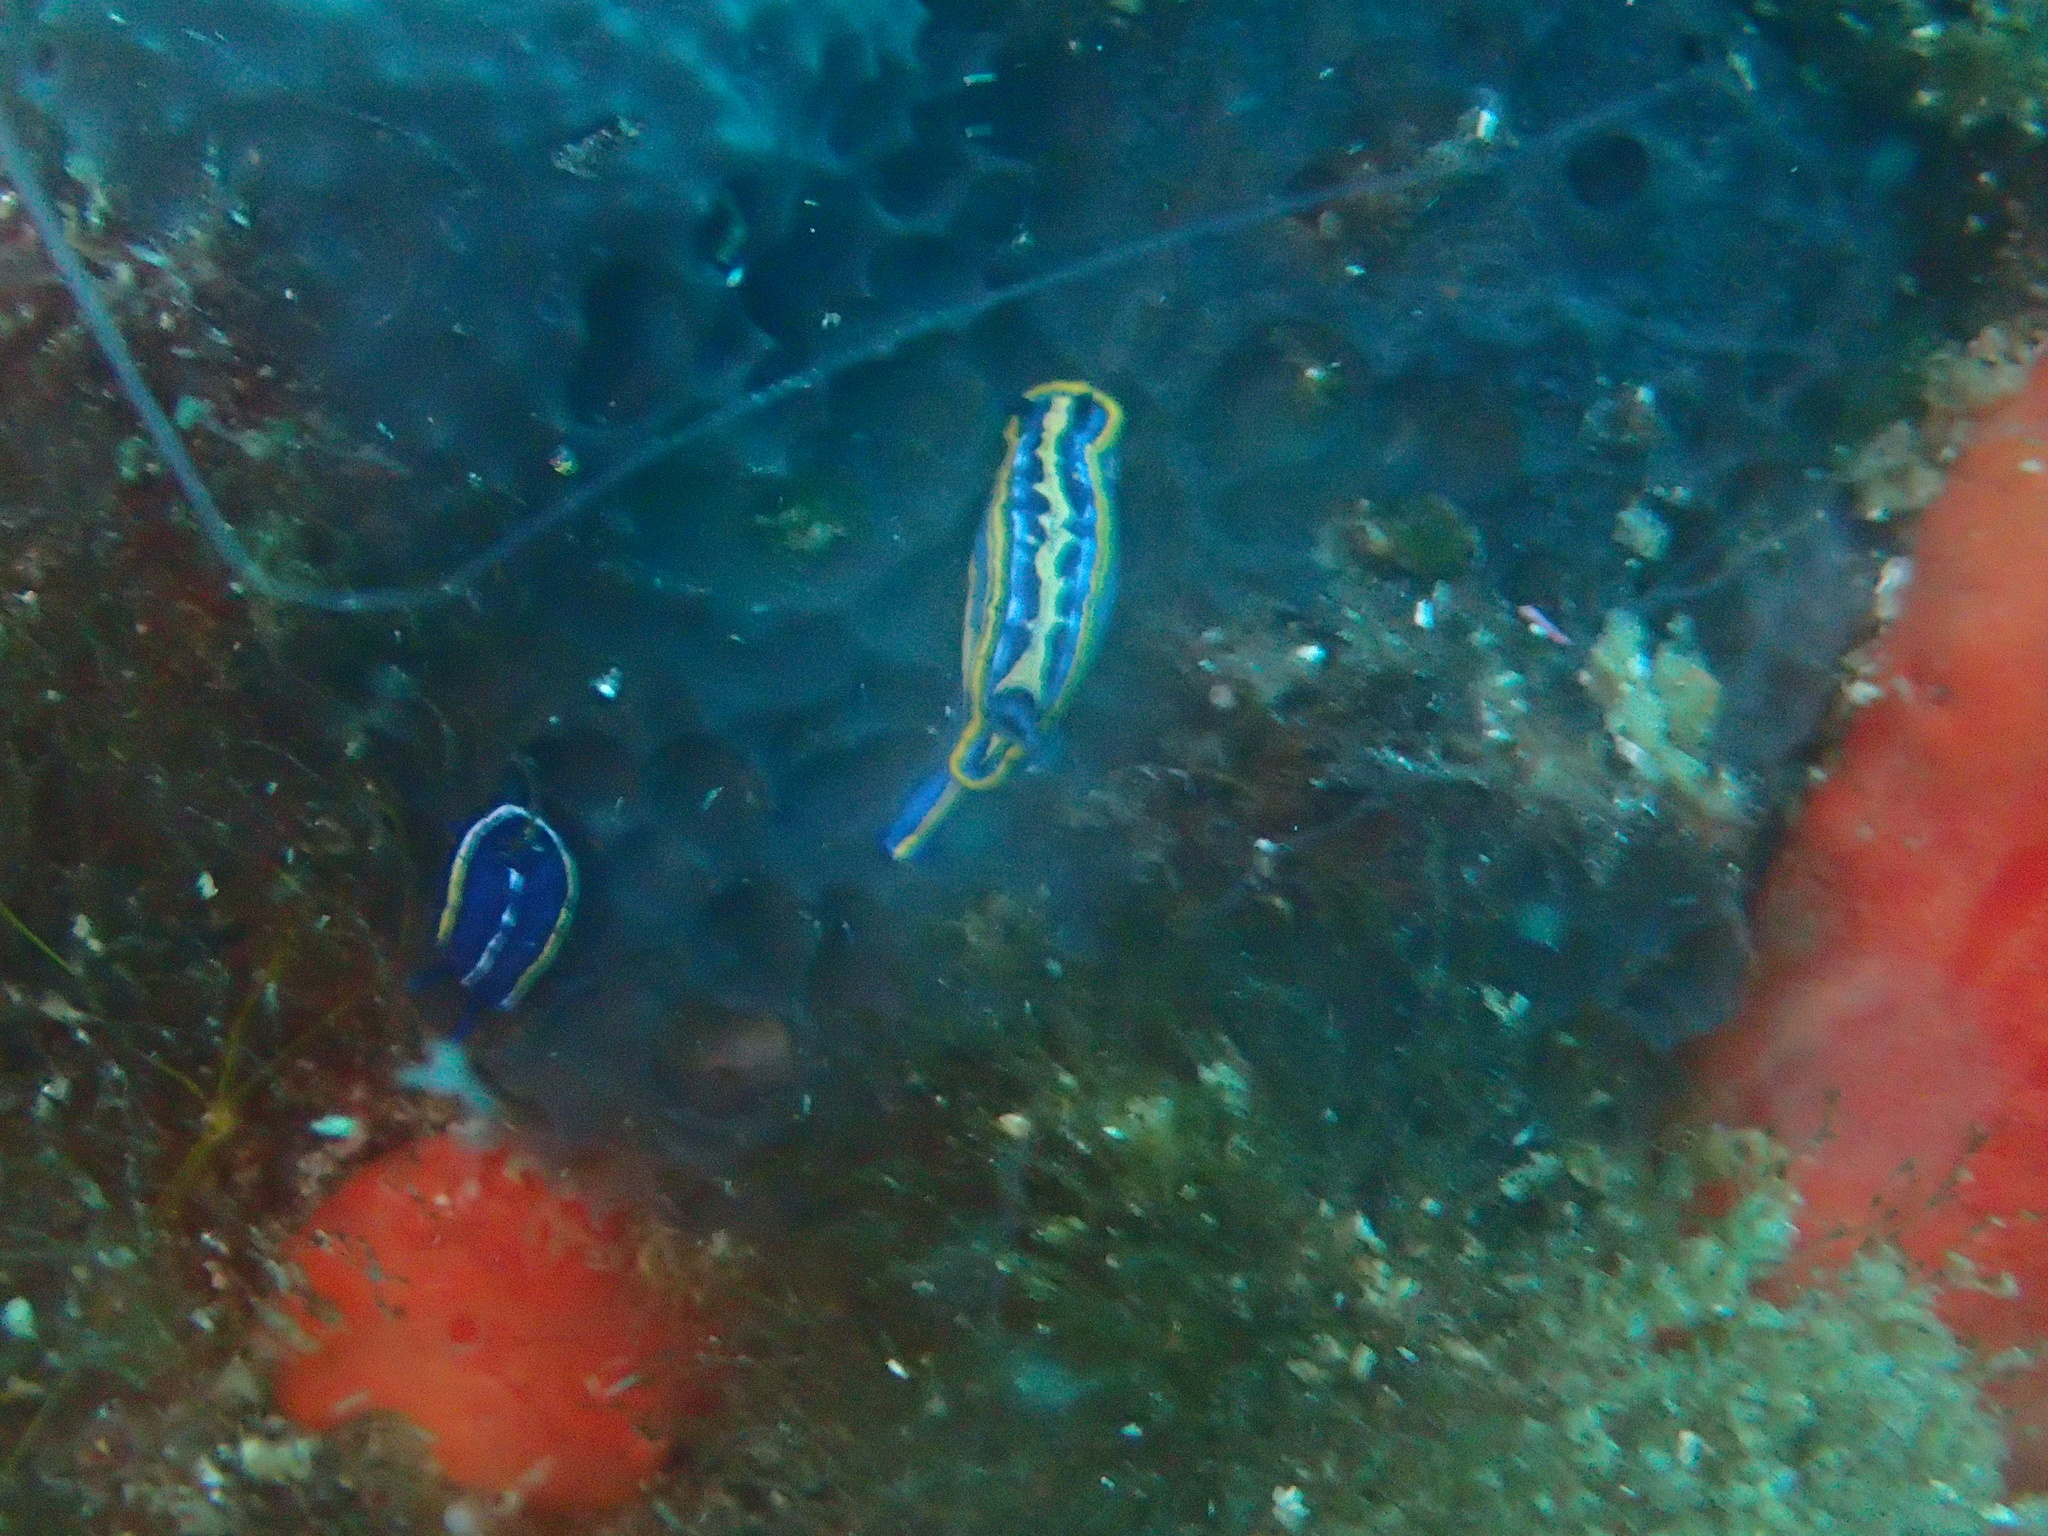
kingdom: Animalia
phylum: Mollusca
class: Gastropoda
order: Nudibranchia
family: Chromodorididae
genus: Felimare
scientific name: Felimare tricolor
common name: Tricolor doris
